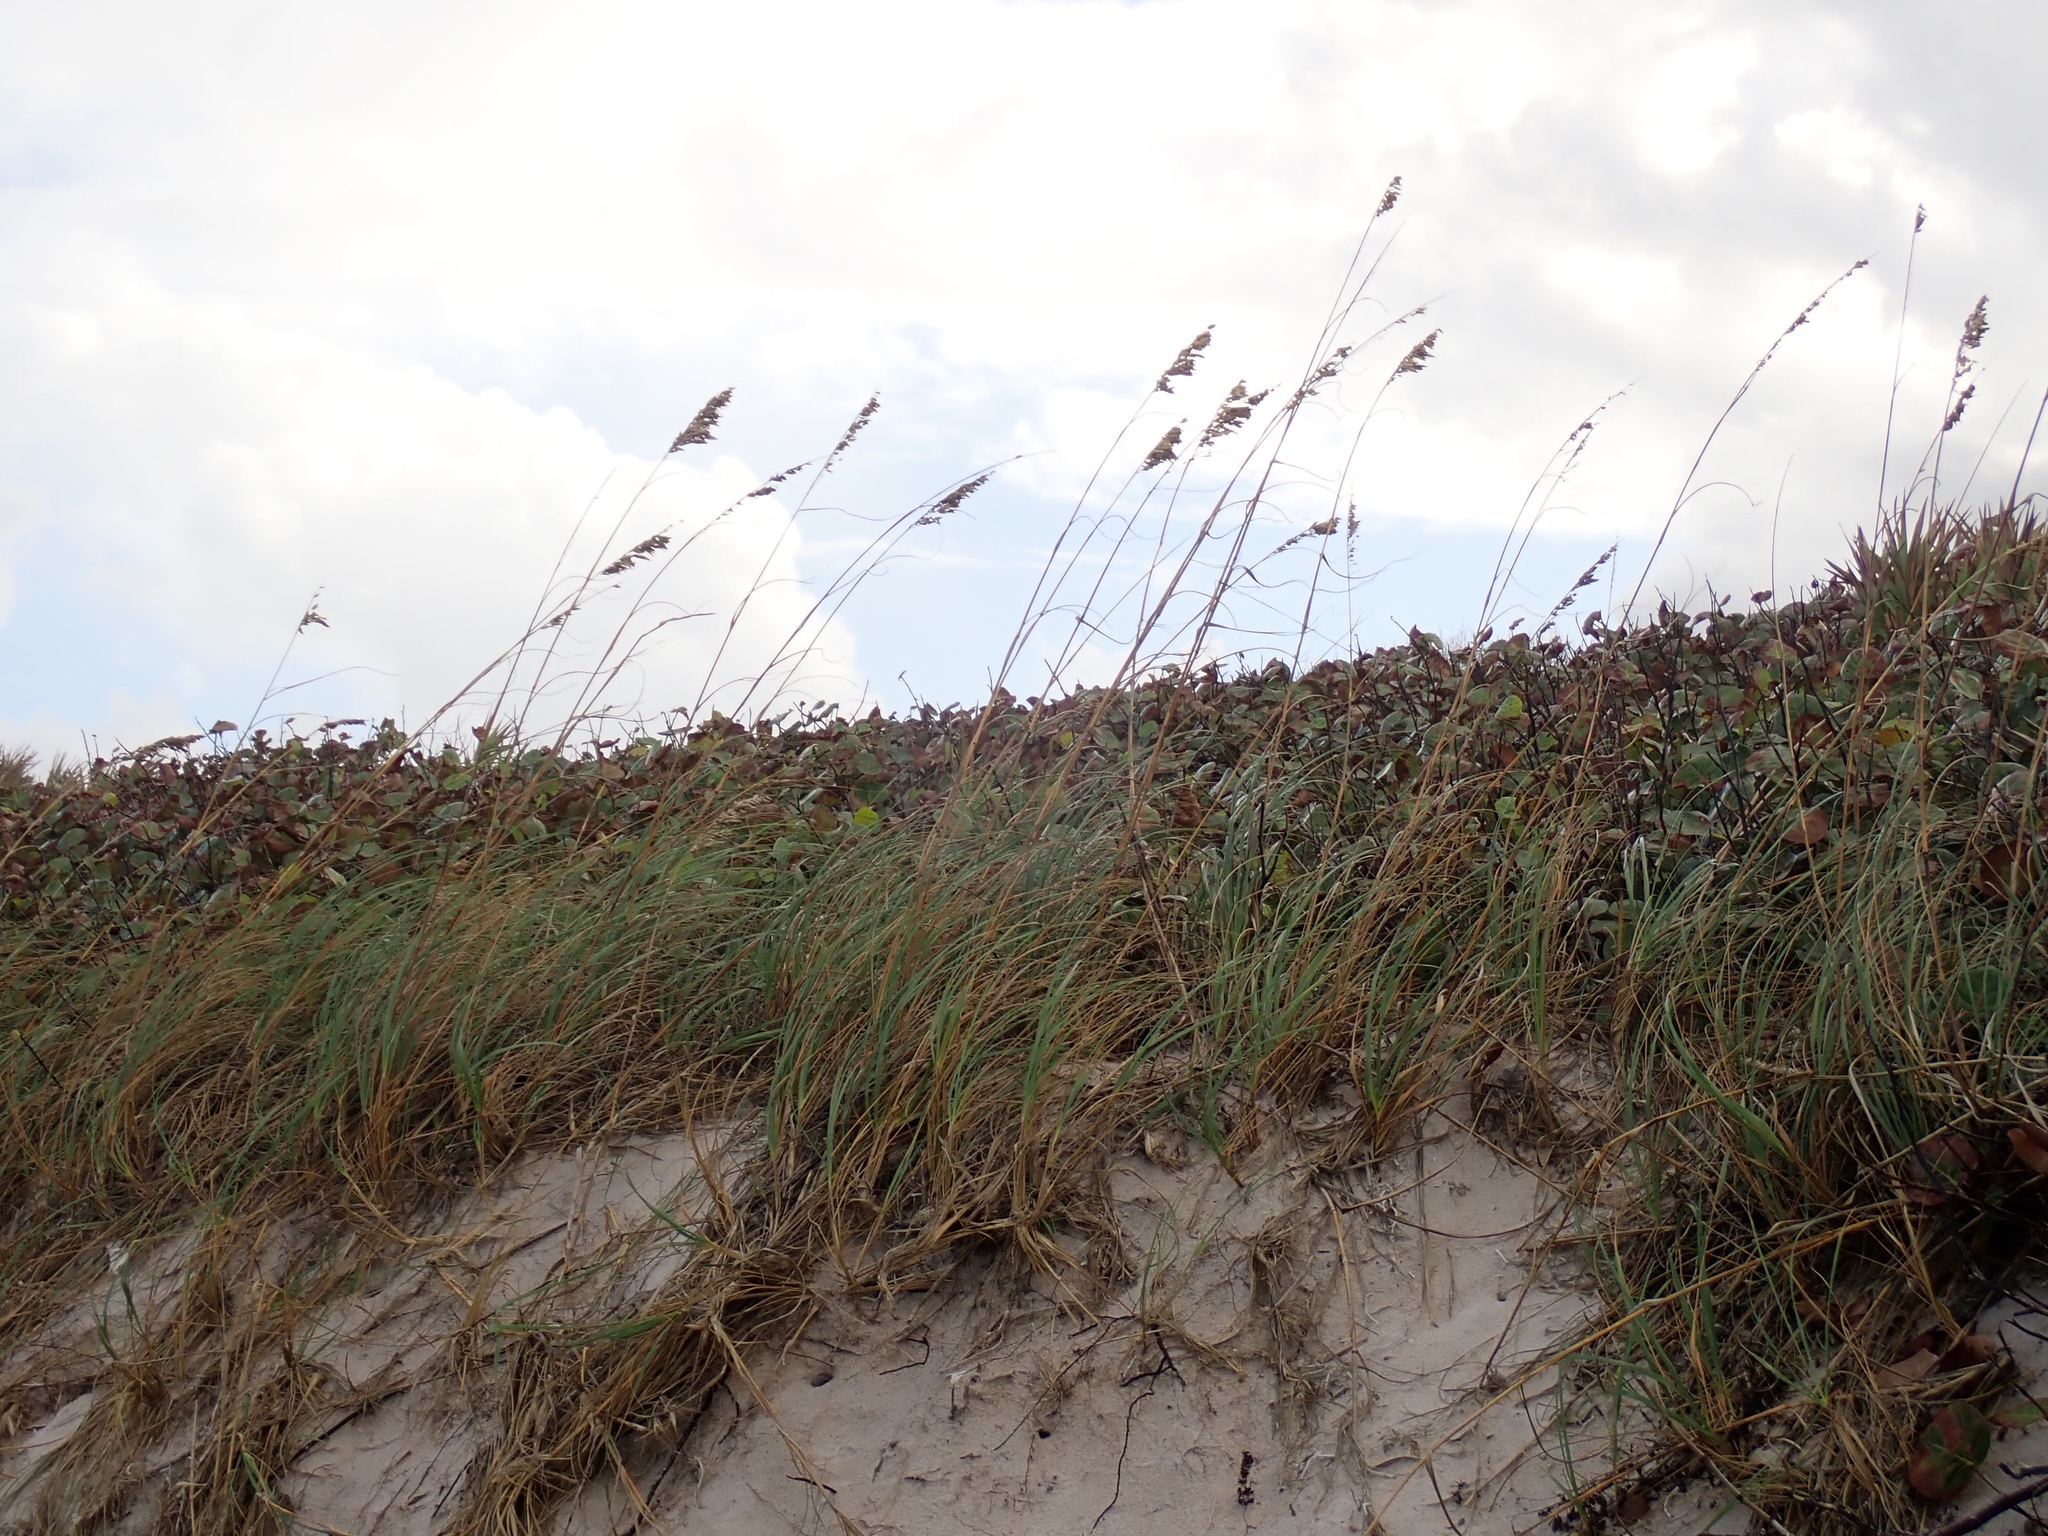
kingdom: Plantae
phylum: Tracheophyta
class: Liliopsida
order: Poales
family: Poaceae
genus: Uniola
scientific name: Uniola paniculata
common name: Seaside-oats
